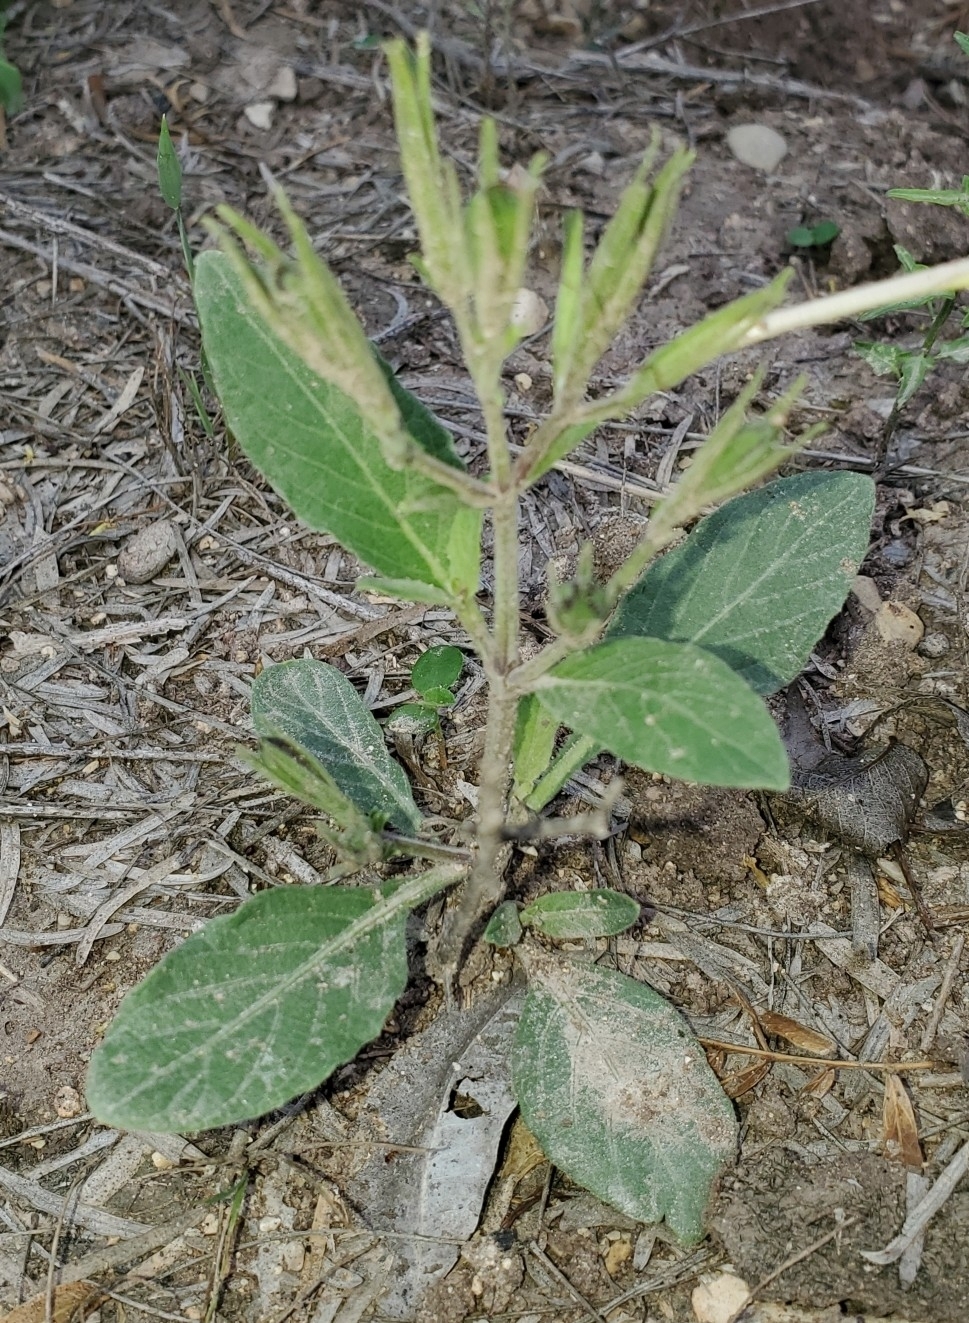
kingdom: Plantae
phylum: Tracheophyta
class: Magnoliopsida
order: Lamiales
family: Acanthaceae
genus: Ruellia
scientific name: Ruellia metziae
